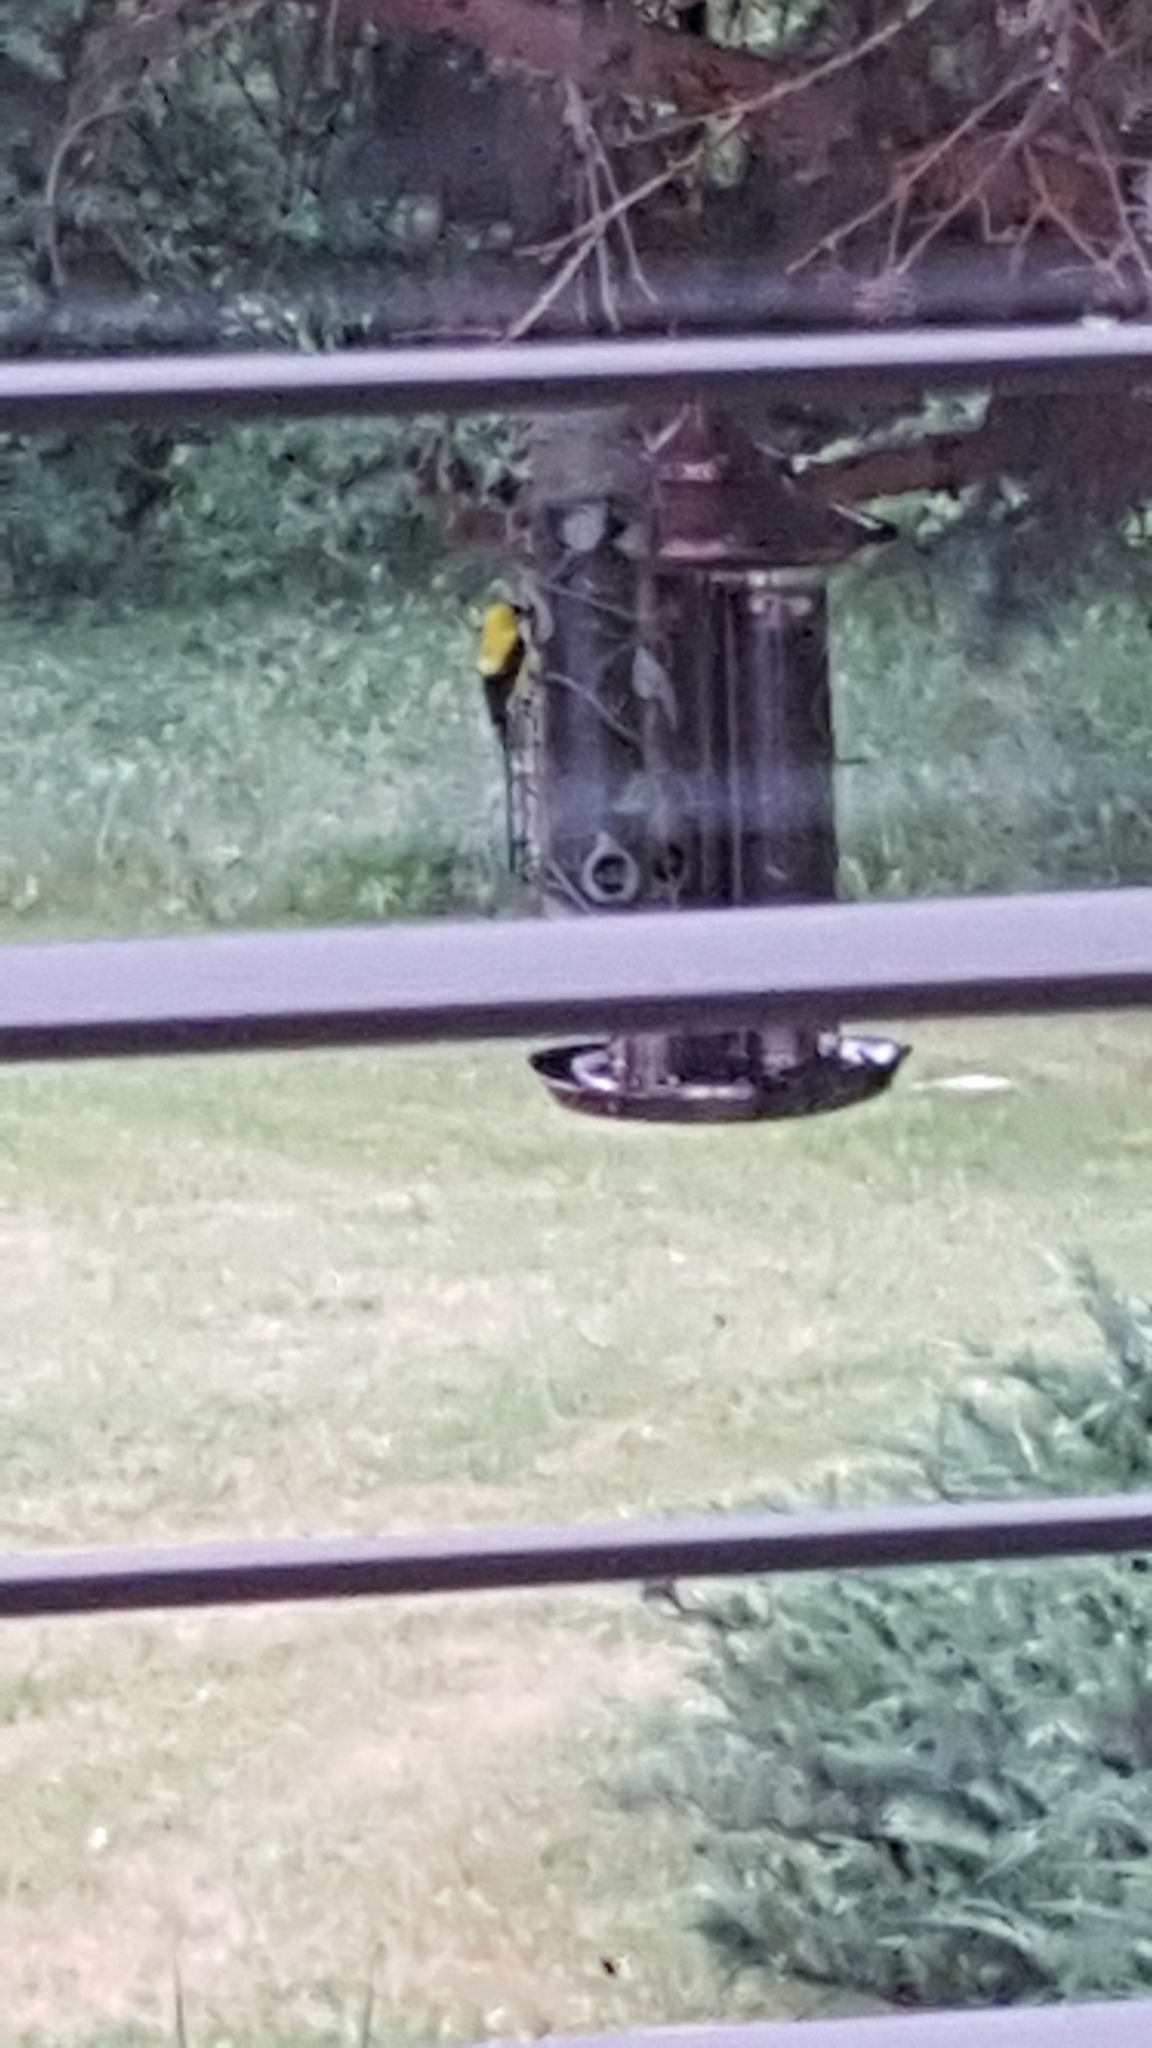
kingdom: Animalia
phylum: Chordata
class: Aves
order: Passeriformes
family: Fringillidae
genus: Spinus
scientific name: Spinus tristis
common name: American goldfinch
